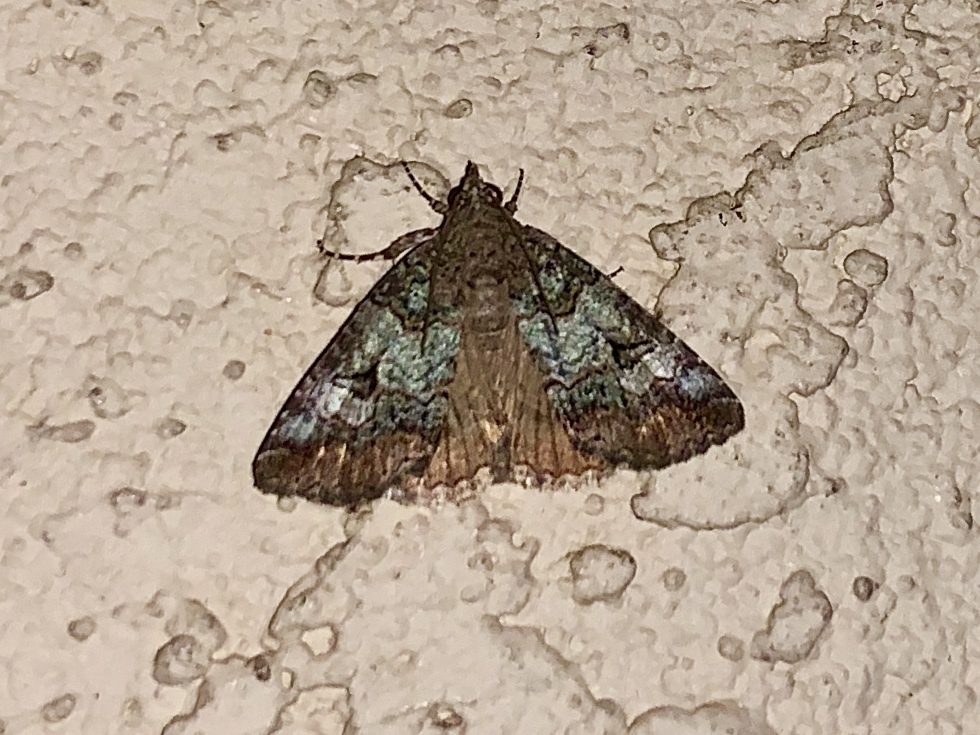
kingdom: Animalia
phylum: Arthropoda
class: Insecta
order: Lepidoptera
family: Erebidae
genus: Eubolina
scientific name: Eubolina impartialis
